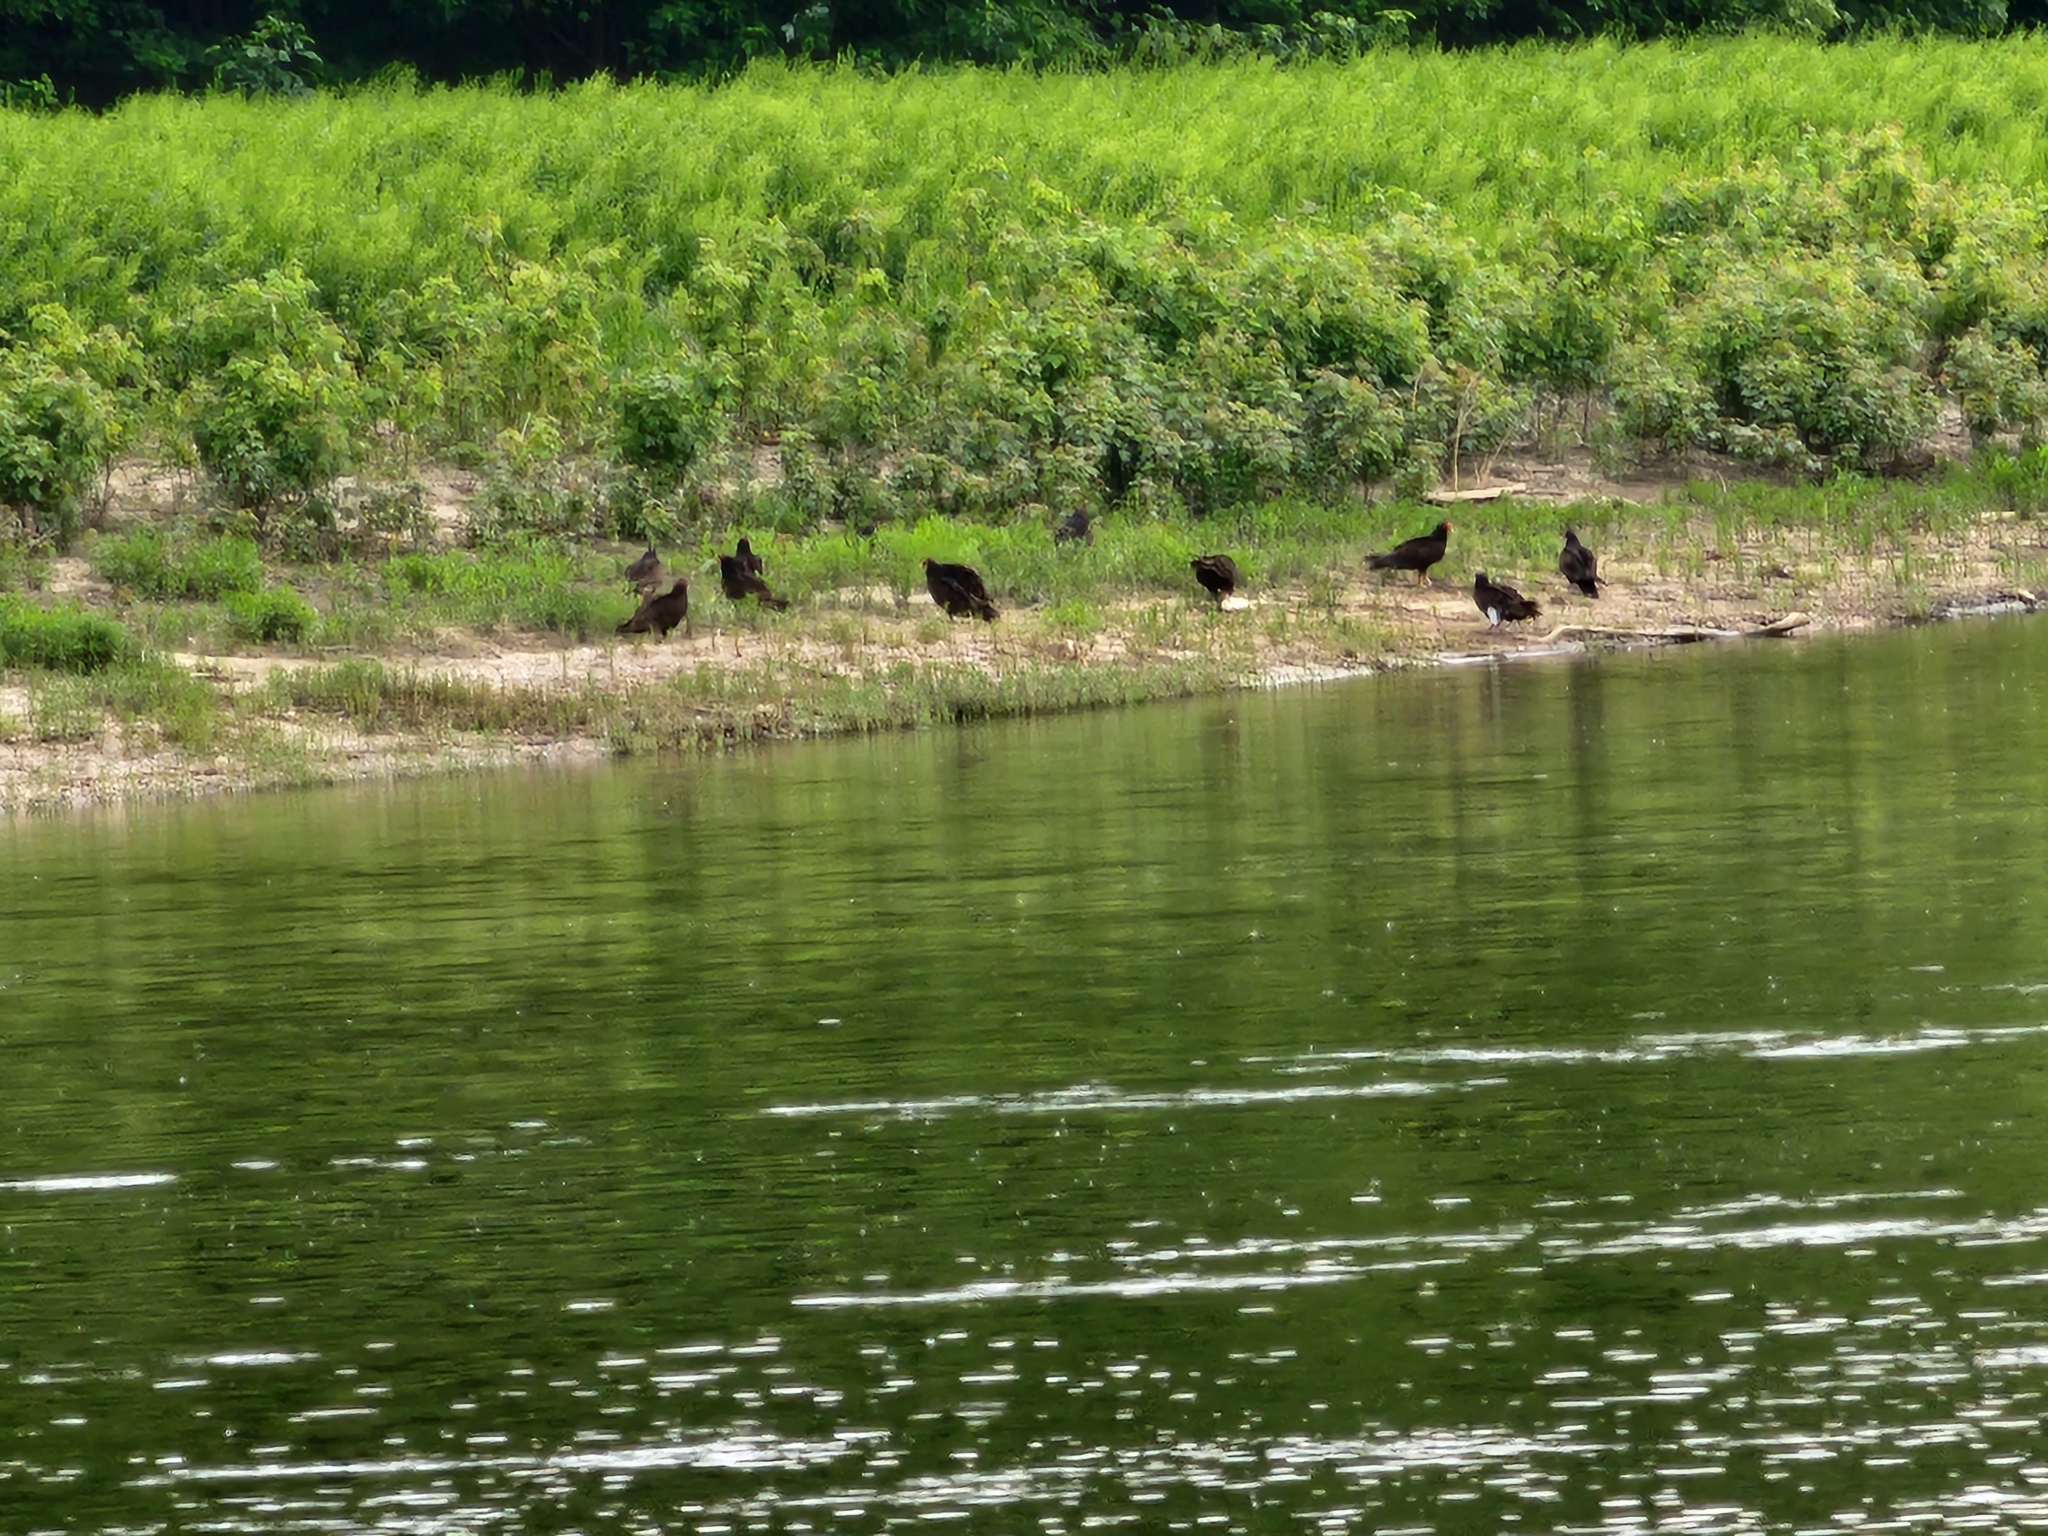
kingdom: Animalia
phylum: Chordata
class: Aves
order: Accipitriformes
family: Cathartidae
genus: Cathartes
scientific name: Cathartes aura
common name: Turkey vulture
